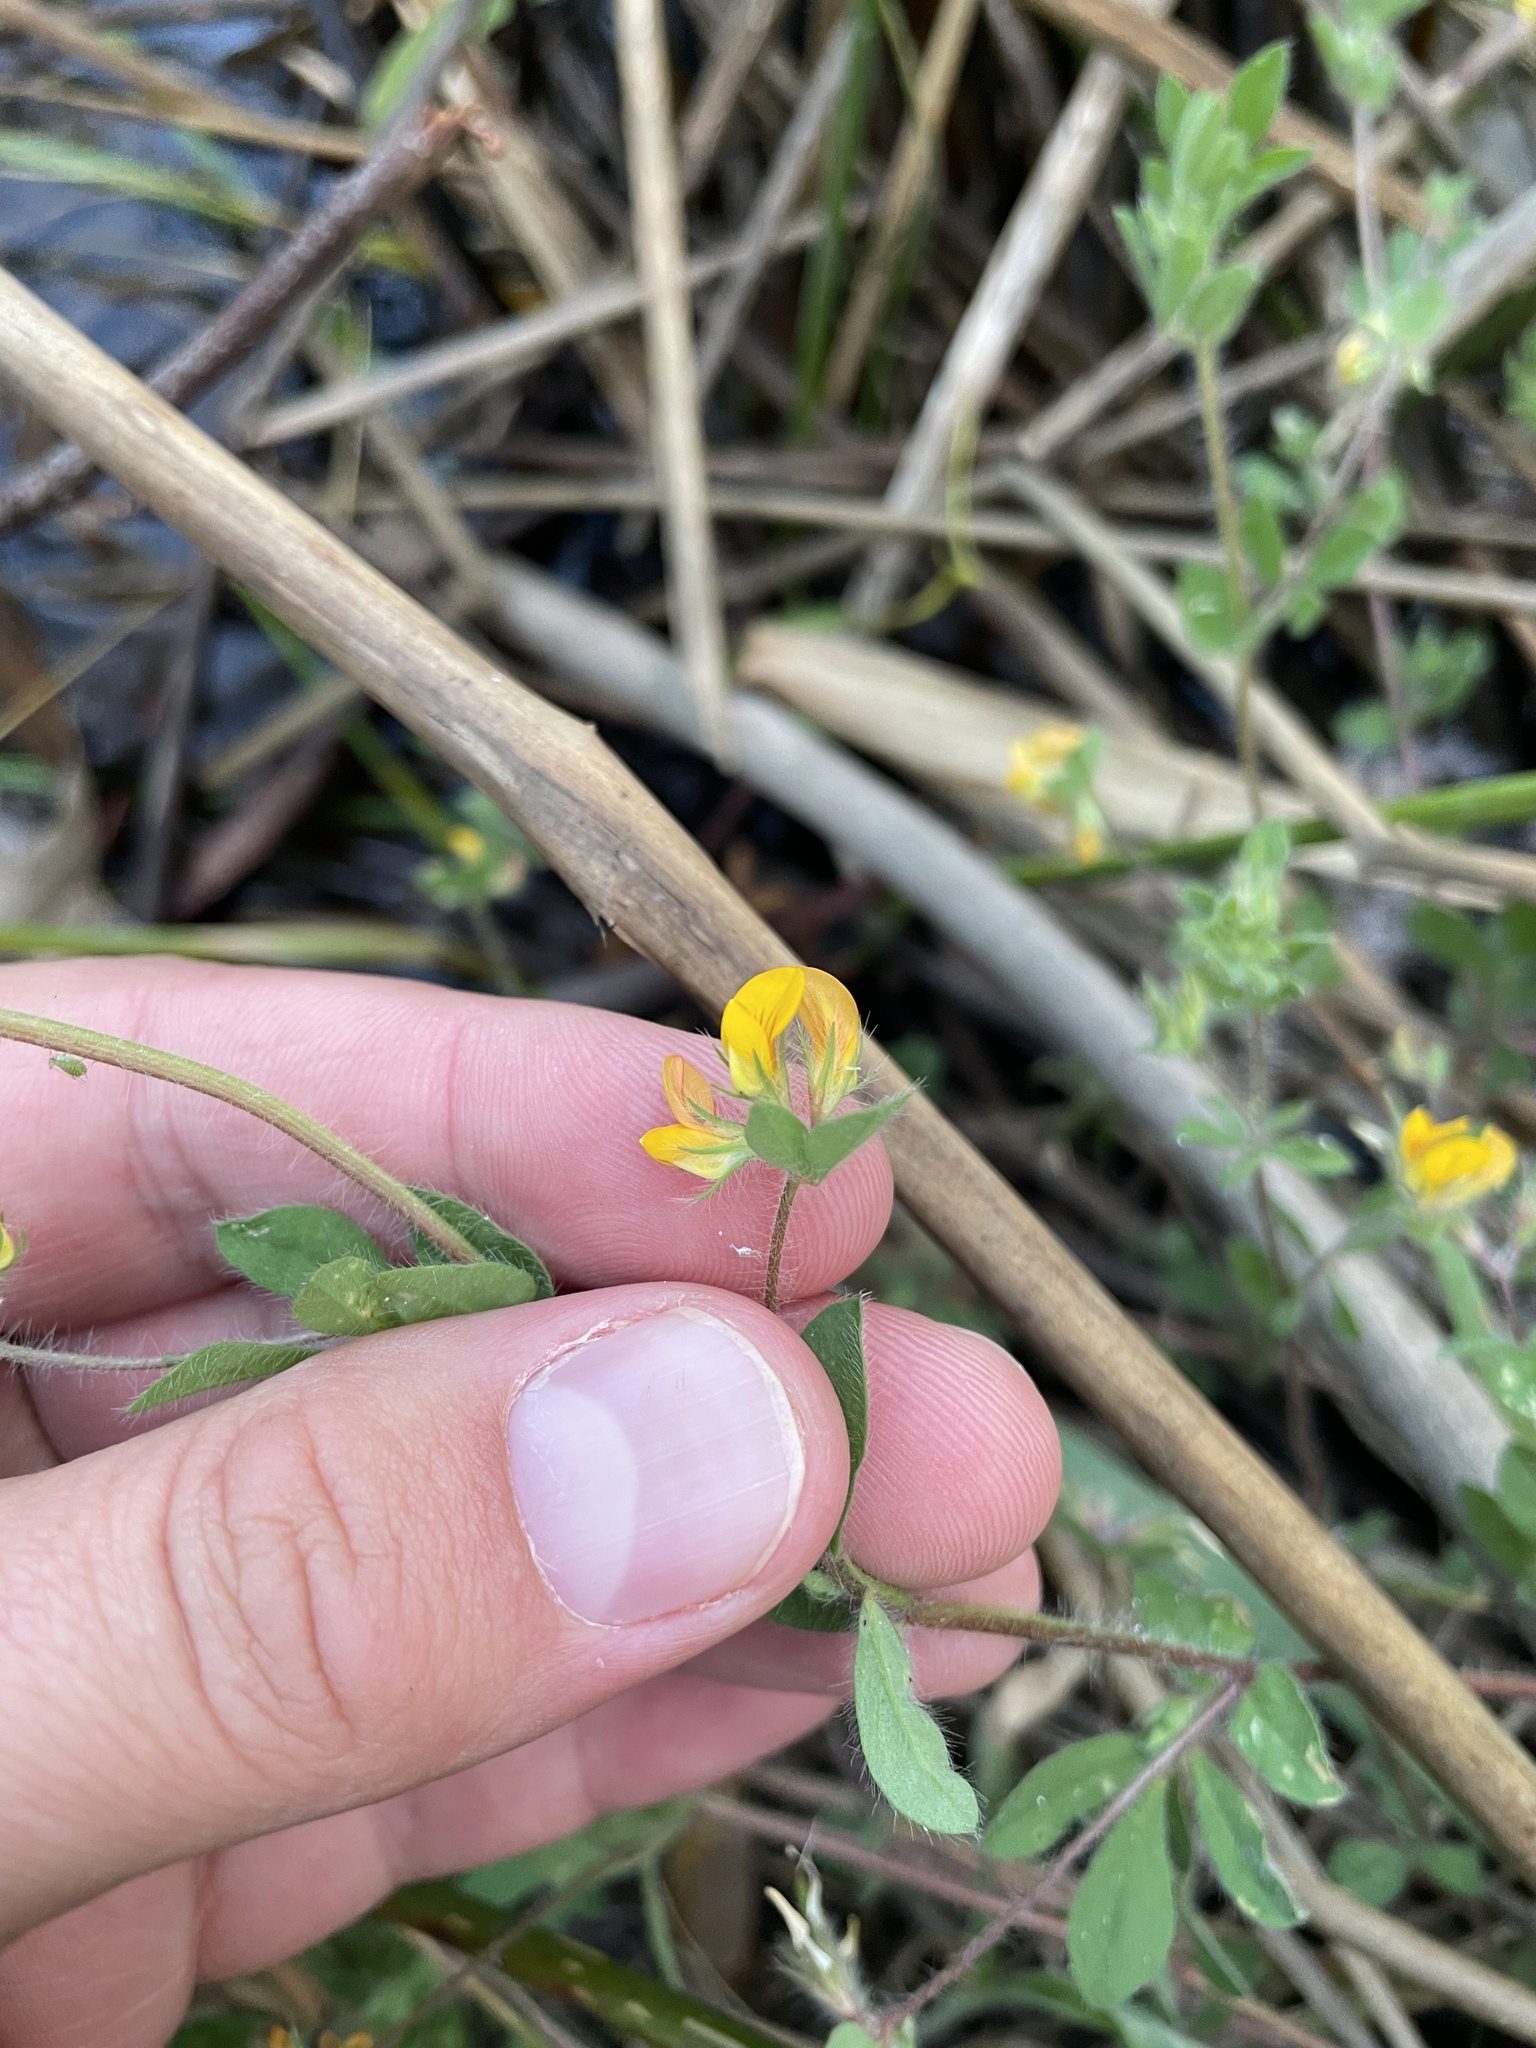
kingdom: Plantae
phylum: Tracheophyta
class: Magnoliopsida
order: Fabales
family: Fabaceae
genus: Lotus
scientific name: Lotus subbiflorus
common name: Hairy bird's-foot trefoil
